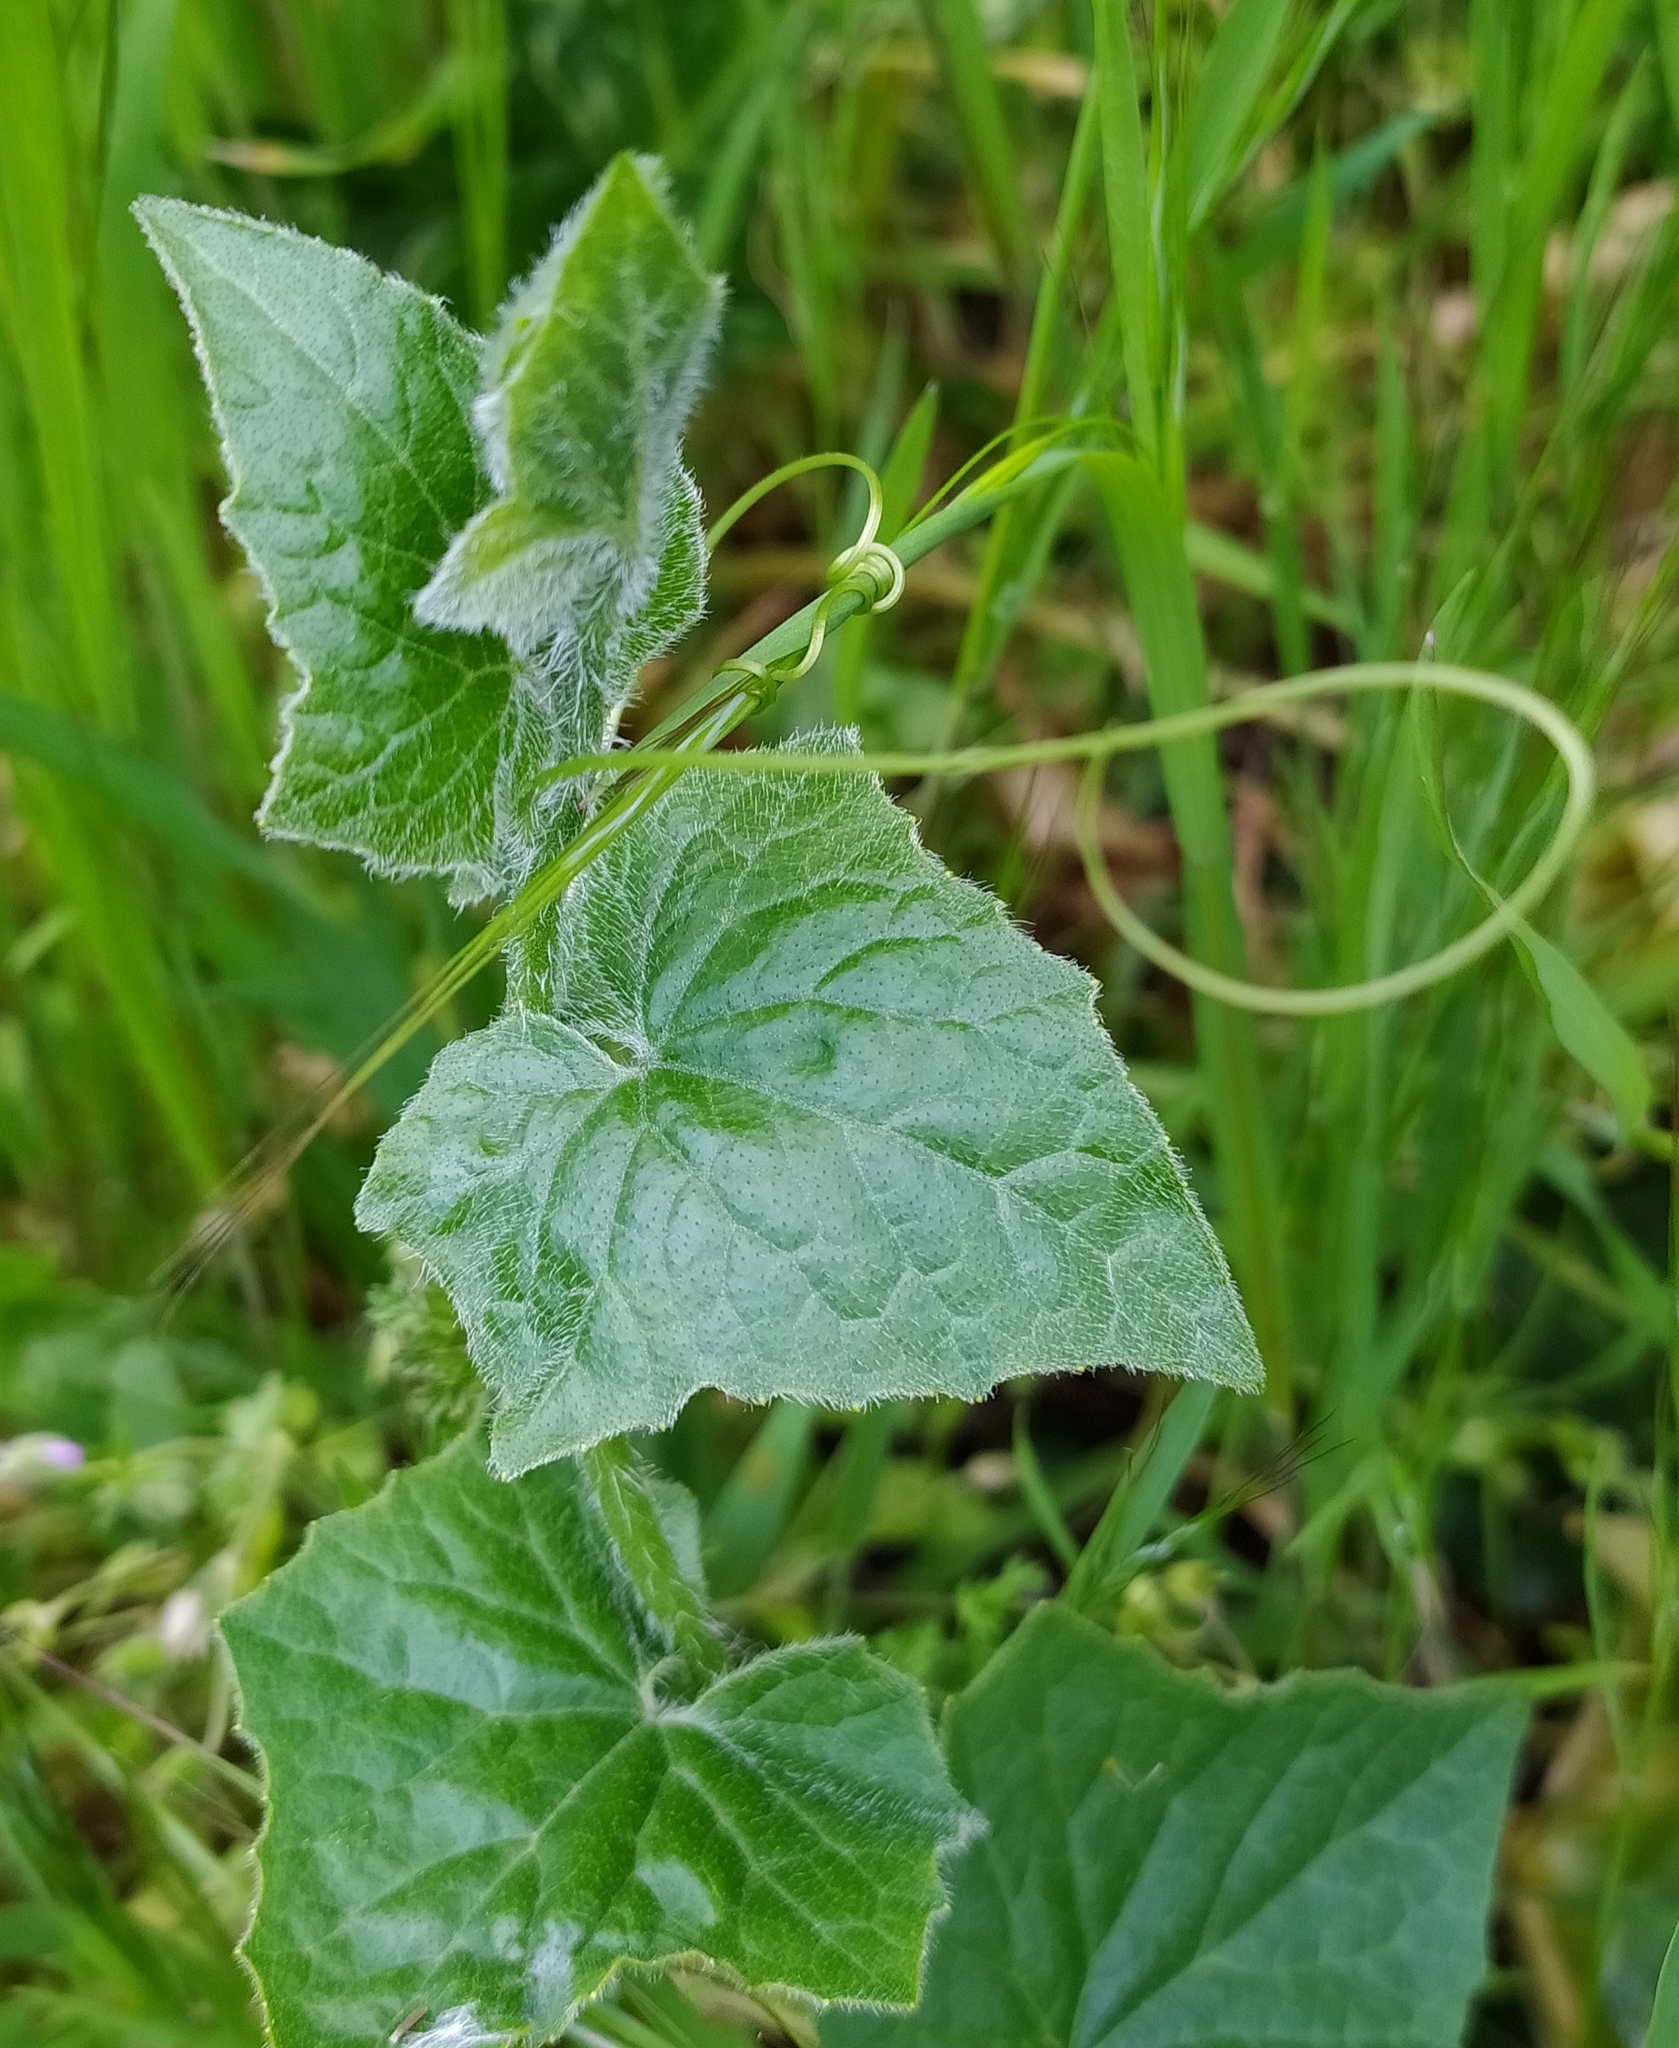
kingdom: Plantae
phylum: Tracheophyta
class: Magnoliopsida
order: Cucurbitales
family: Cucurbitaceae
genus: Bryonia
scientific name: Bryonia dioica
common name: White bryony
